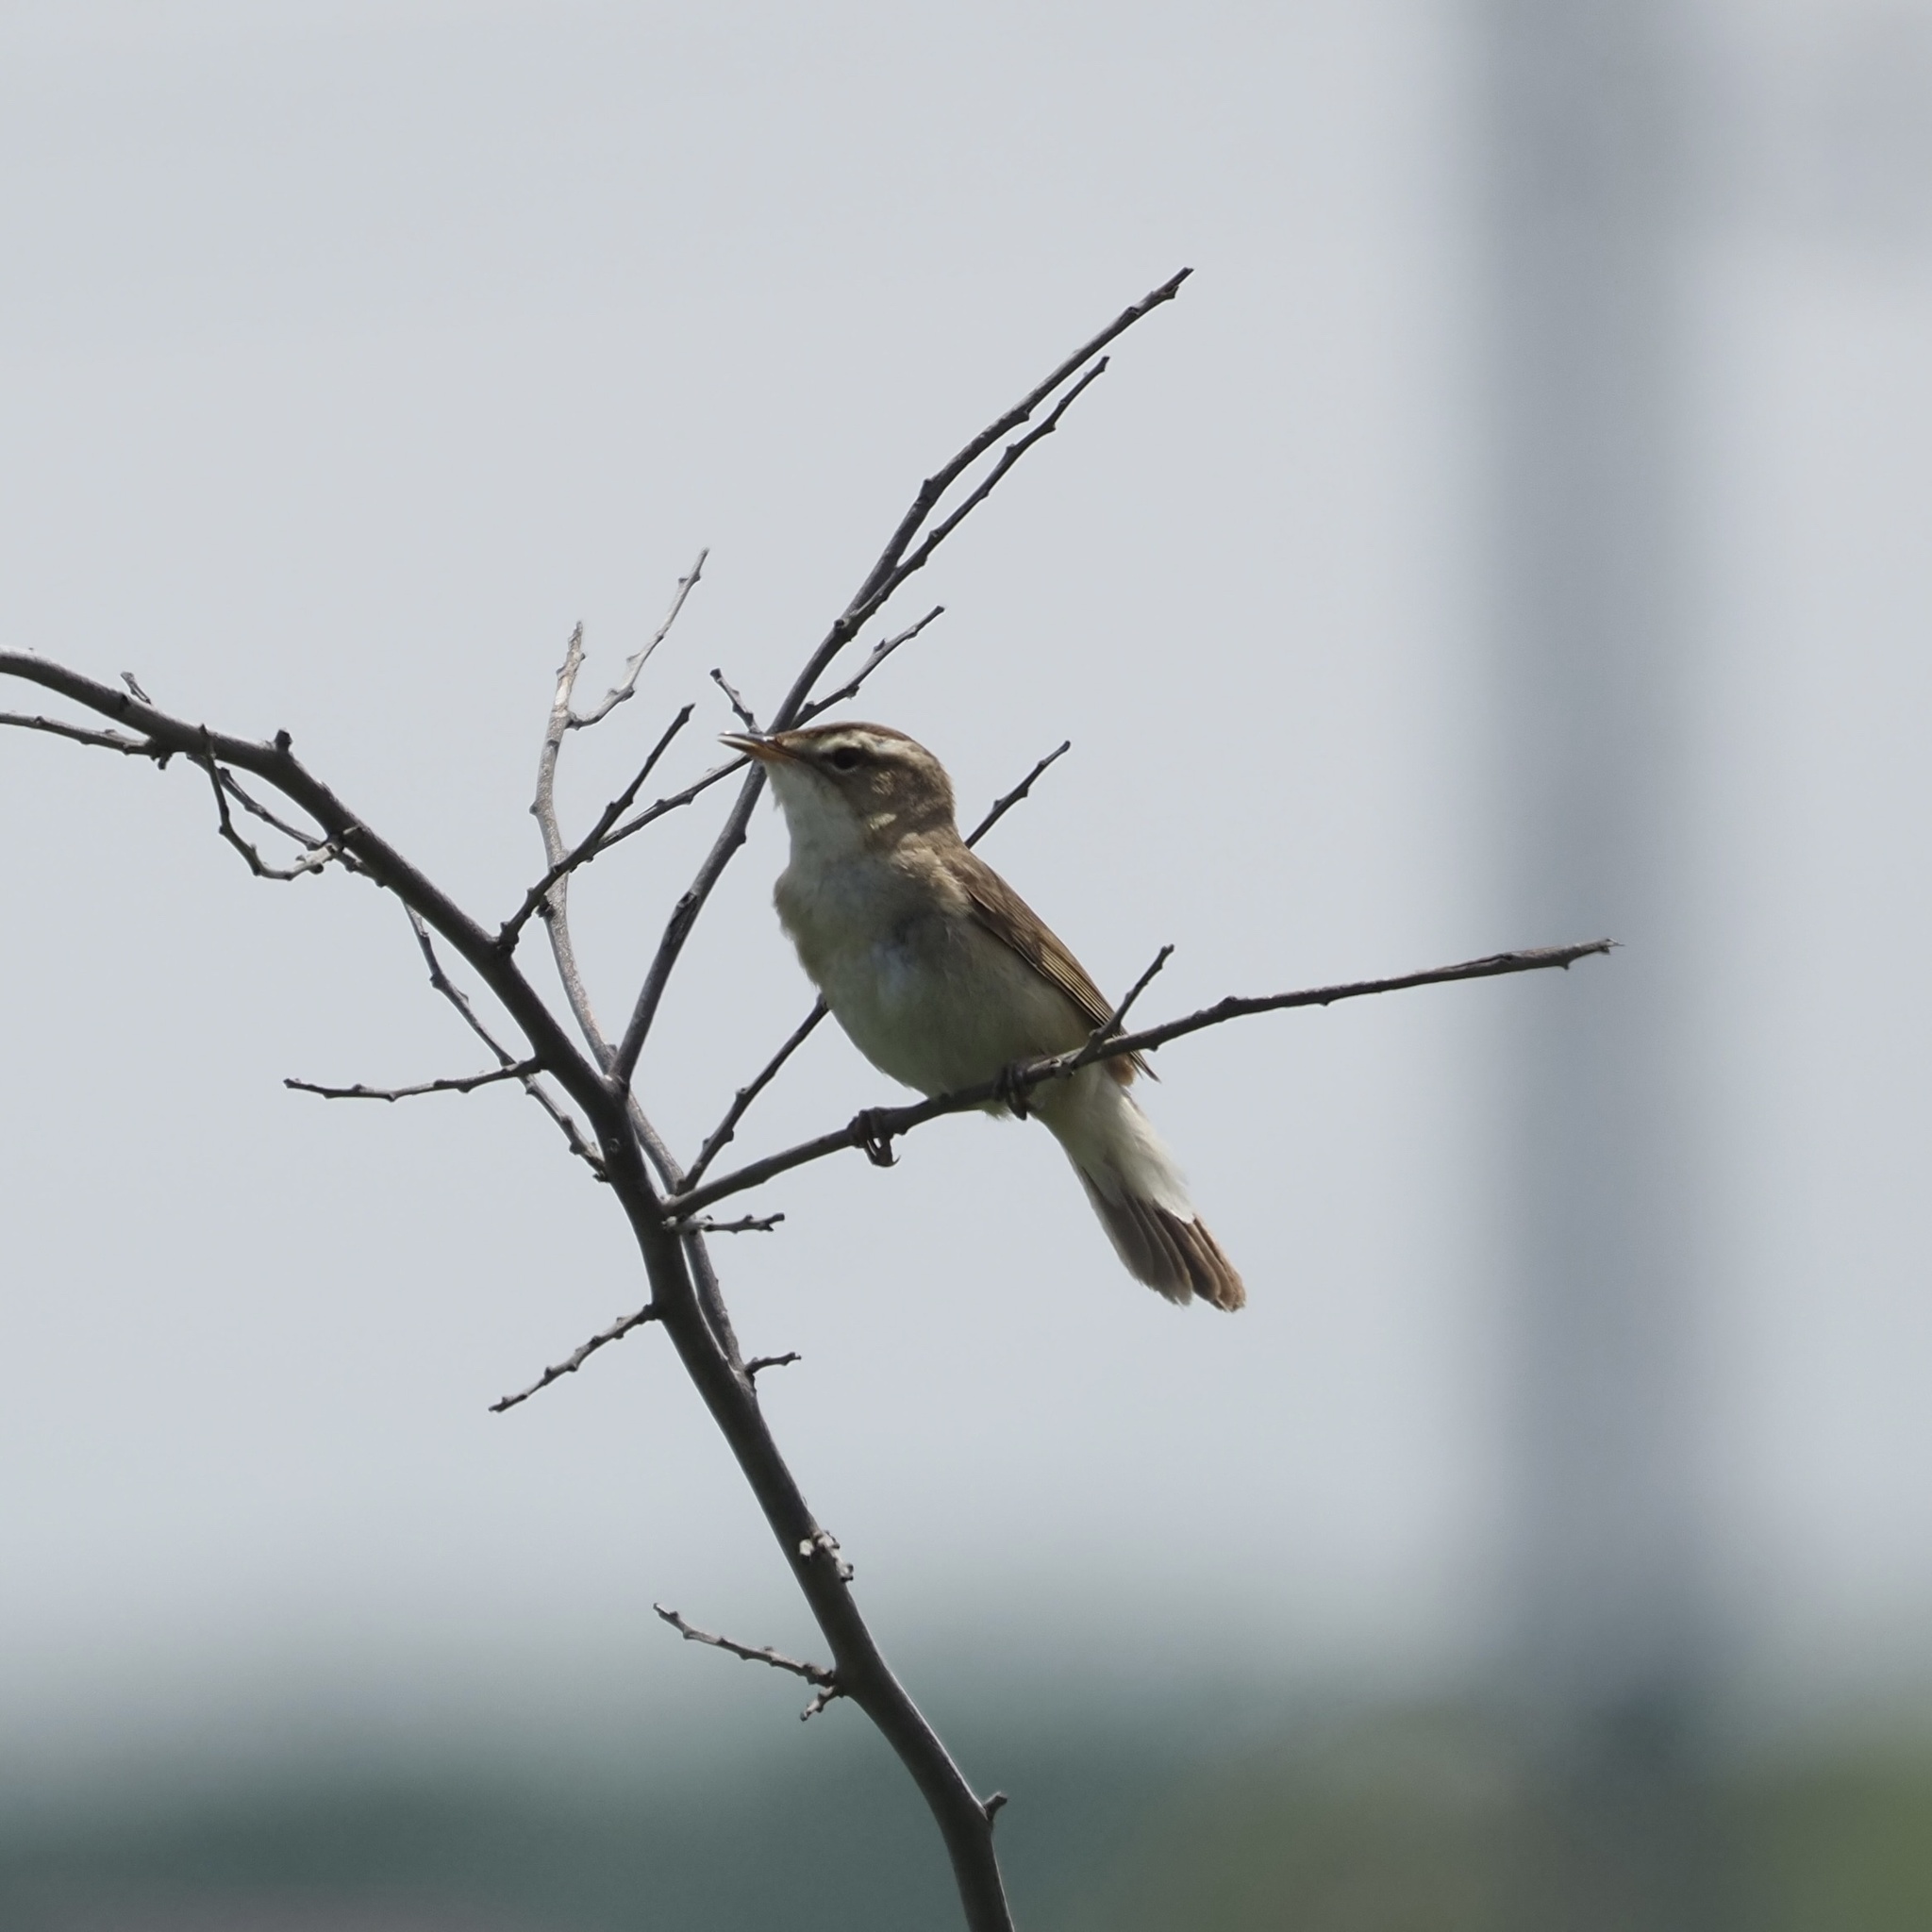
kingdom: Animalia
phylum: Chordata
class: Aves
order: Passeriformes
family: Acrocephalidae
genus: Acrocephalus
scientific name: Acrocephalus bistrigiceps
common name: Black-browed reed warbler
